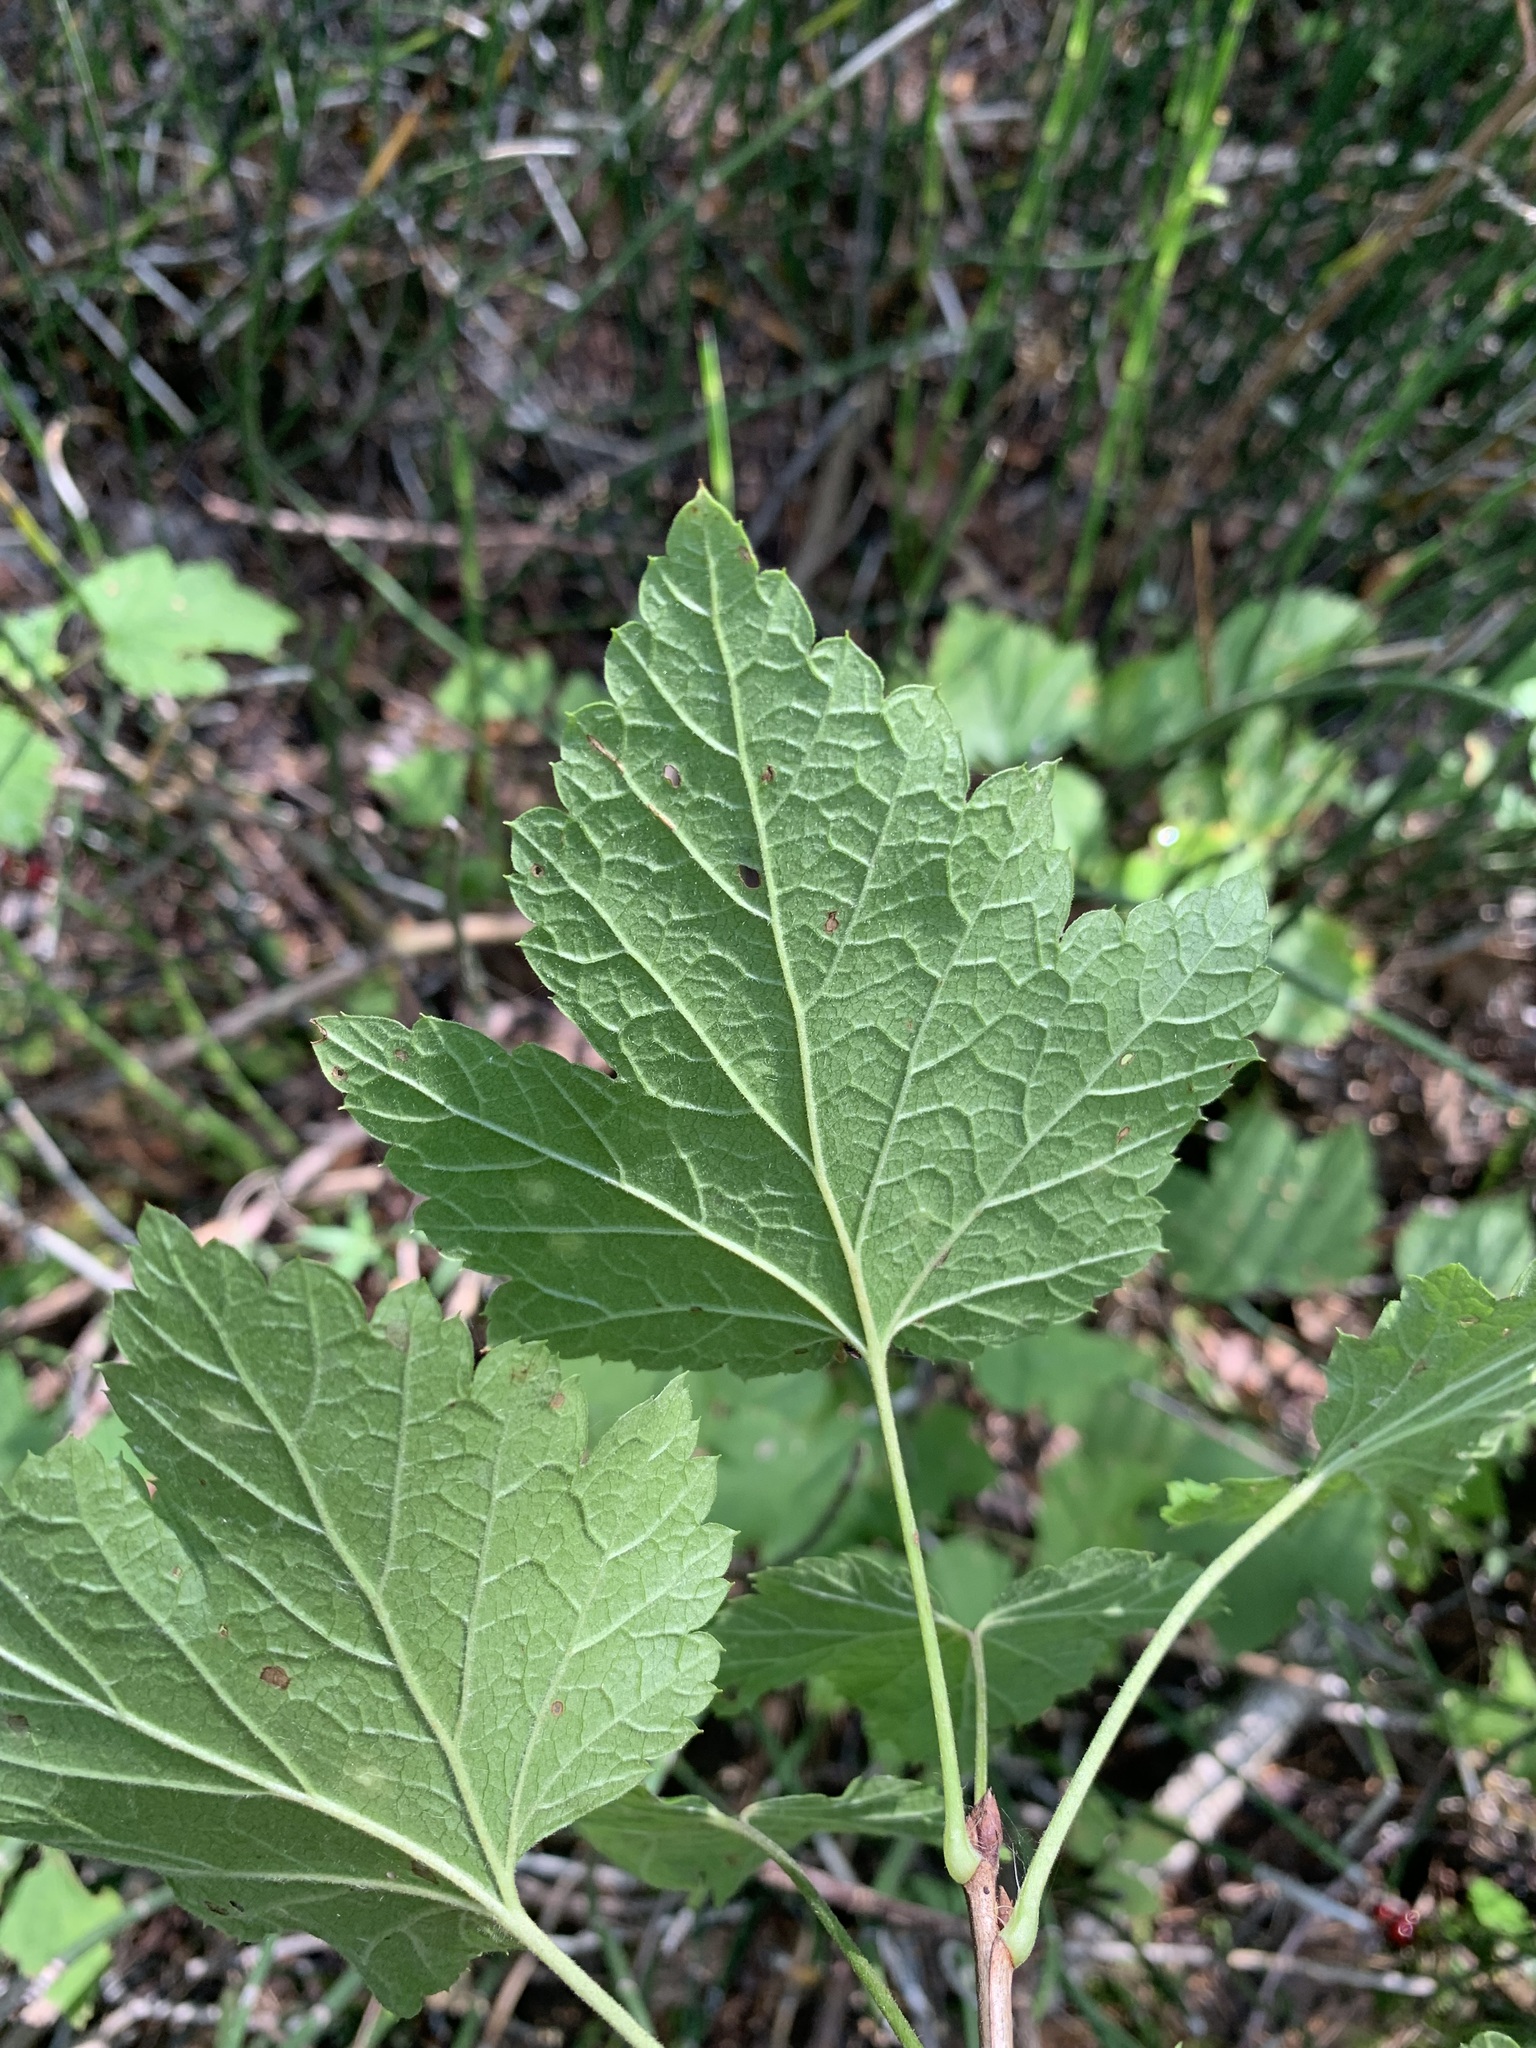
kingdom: Plantae
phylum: Tracheophyta
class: Magnoliopsida
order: Saxifragales
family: Grossulariaceae
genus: Ribes
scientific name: Ribes spicatum
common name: Downy currant
